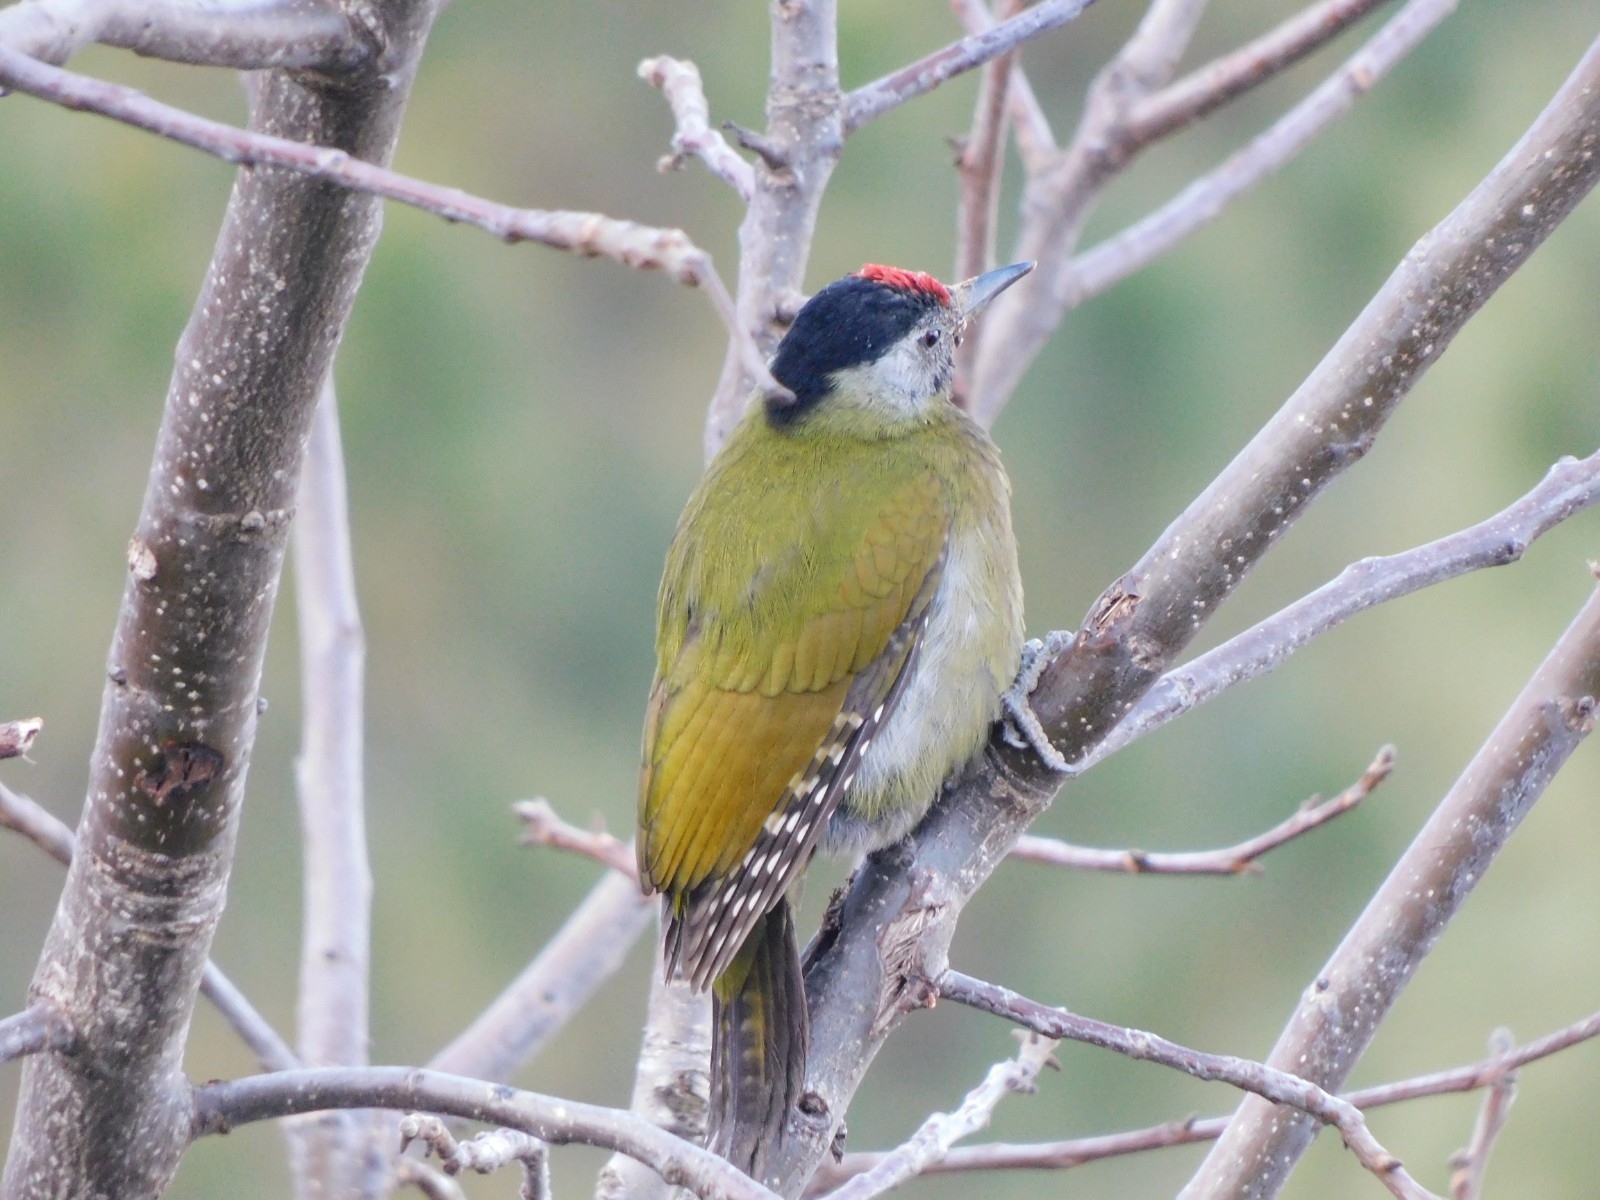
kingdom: Animalia
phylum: Chordata
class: Aves
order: Piciformes
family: Picidae
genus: Picus
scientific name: Picus canus
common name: Grey-headed woodpecker
